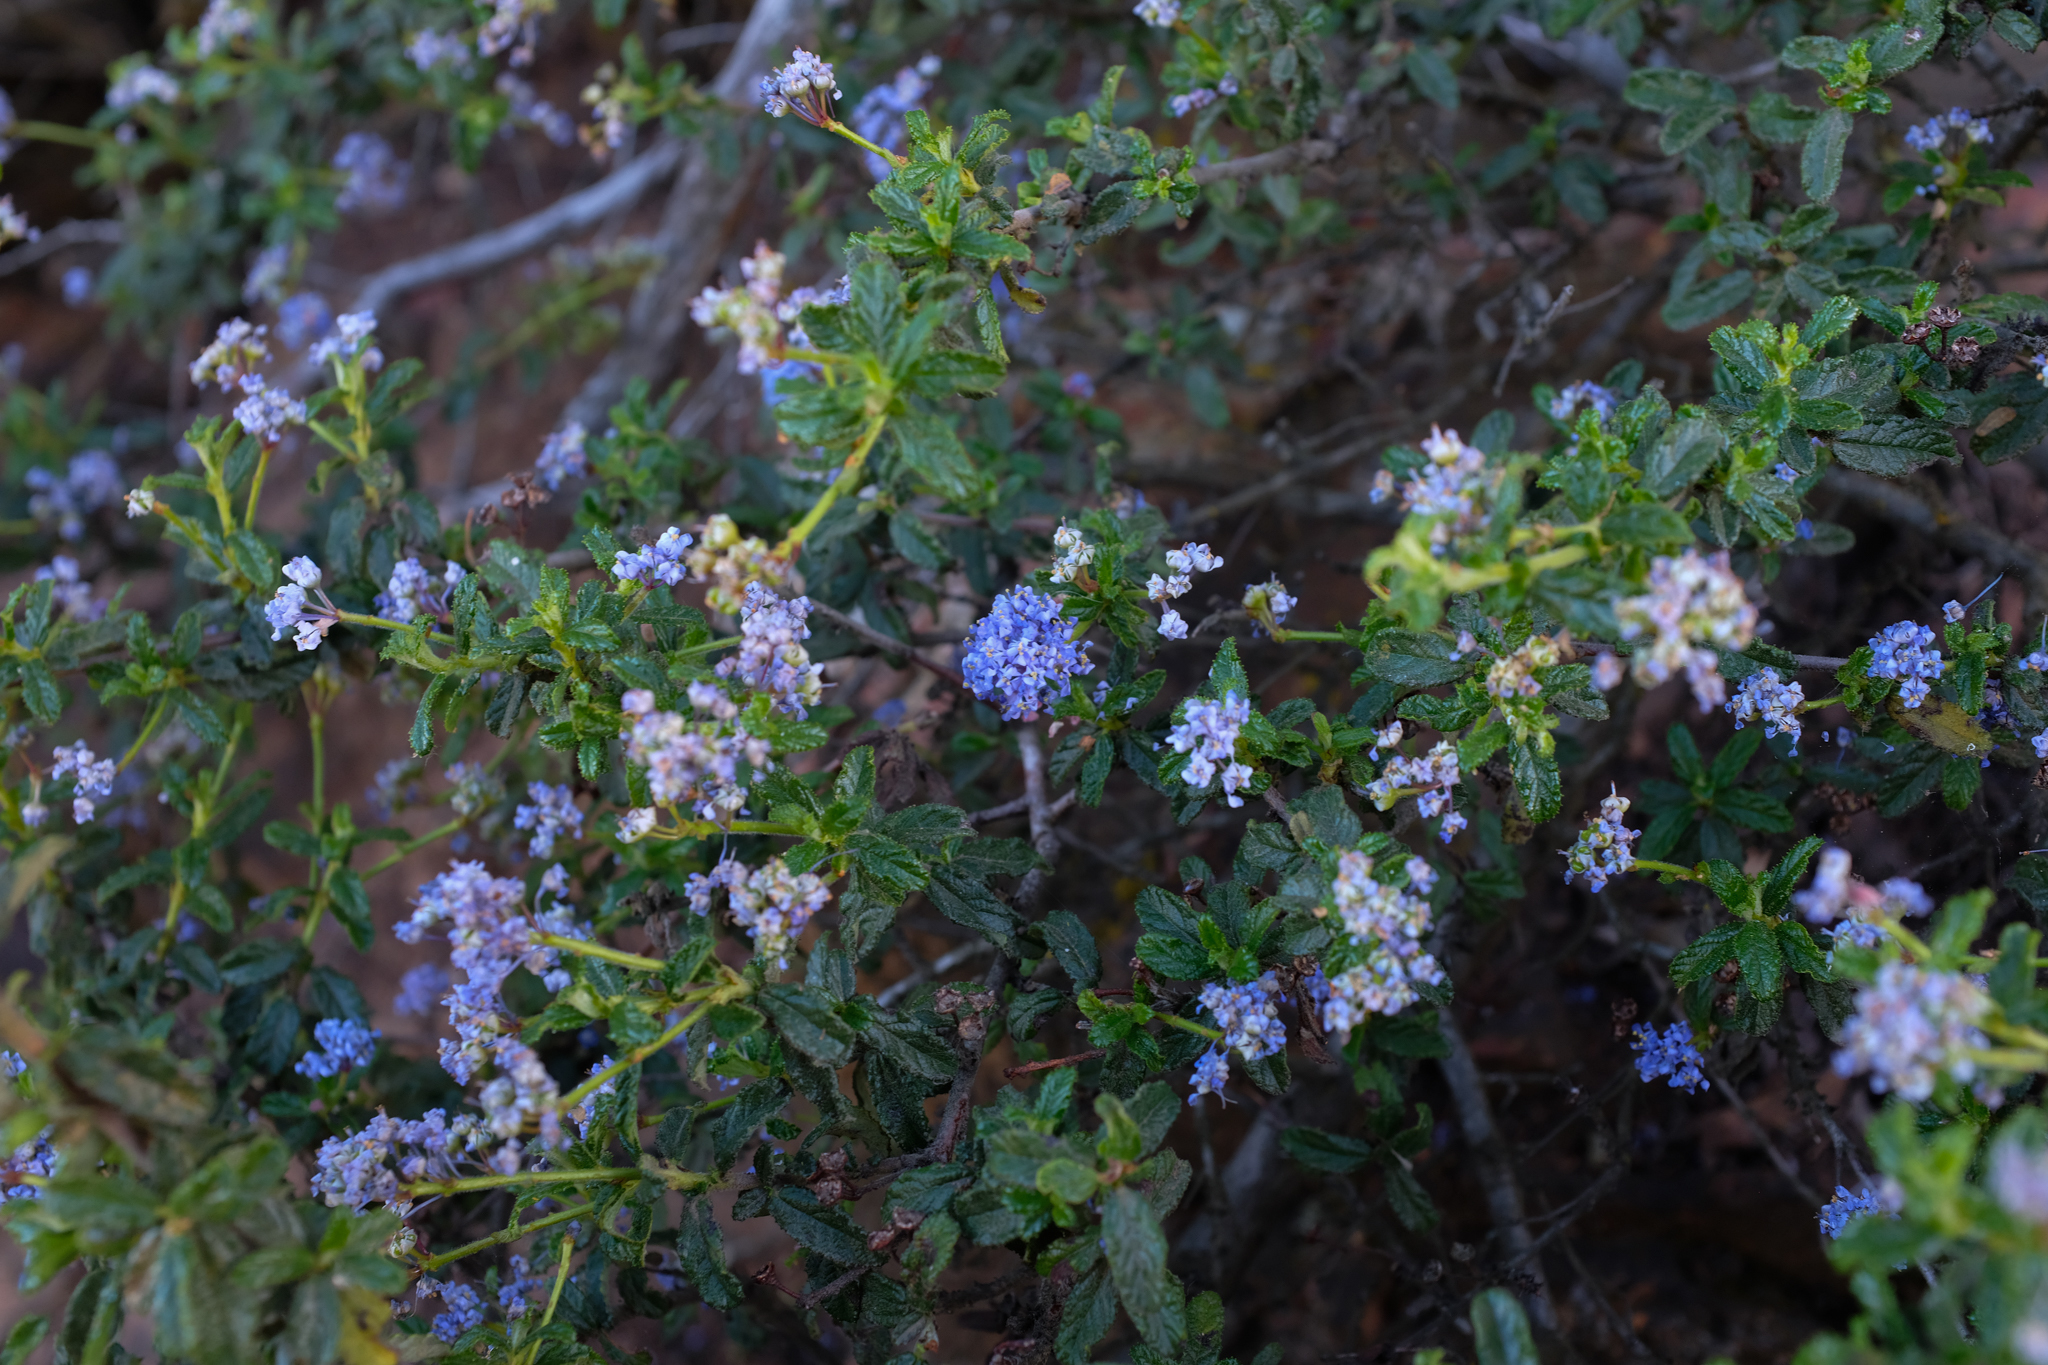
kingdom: Plantae
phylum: Tracheophyta
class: Magnoliopsida
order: Rosales
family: Rhamnaceae
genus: Ceanothus
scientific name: Ceanothus foliosus
